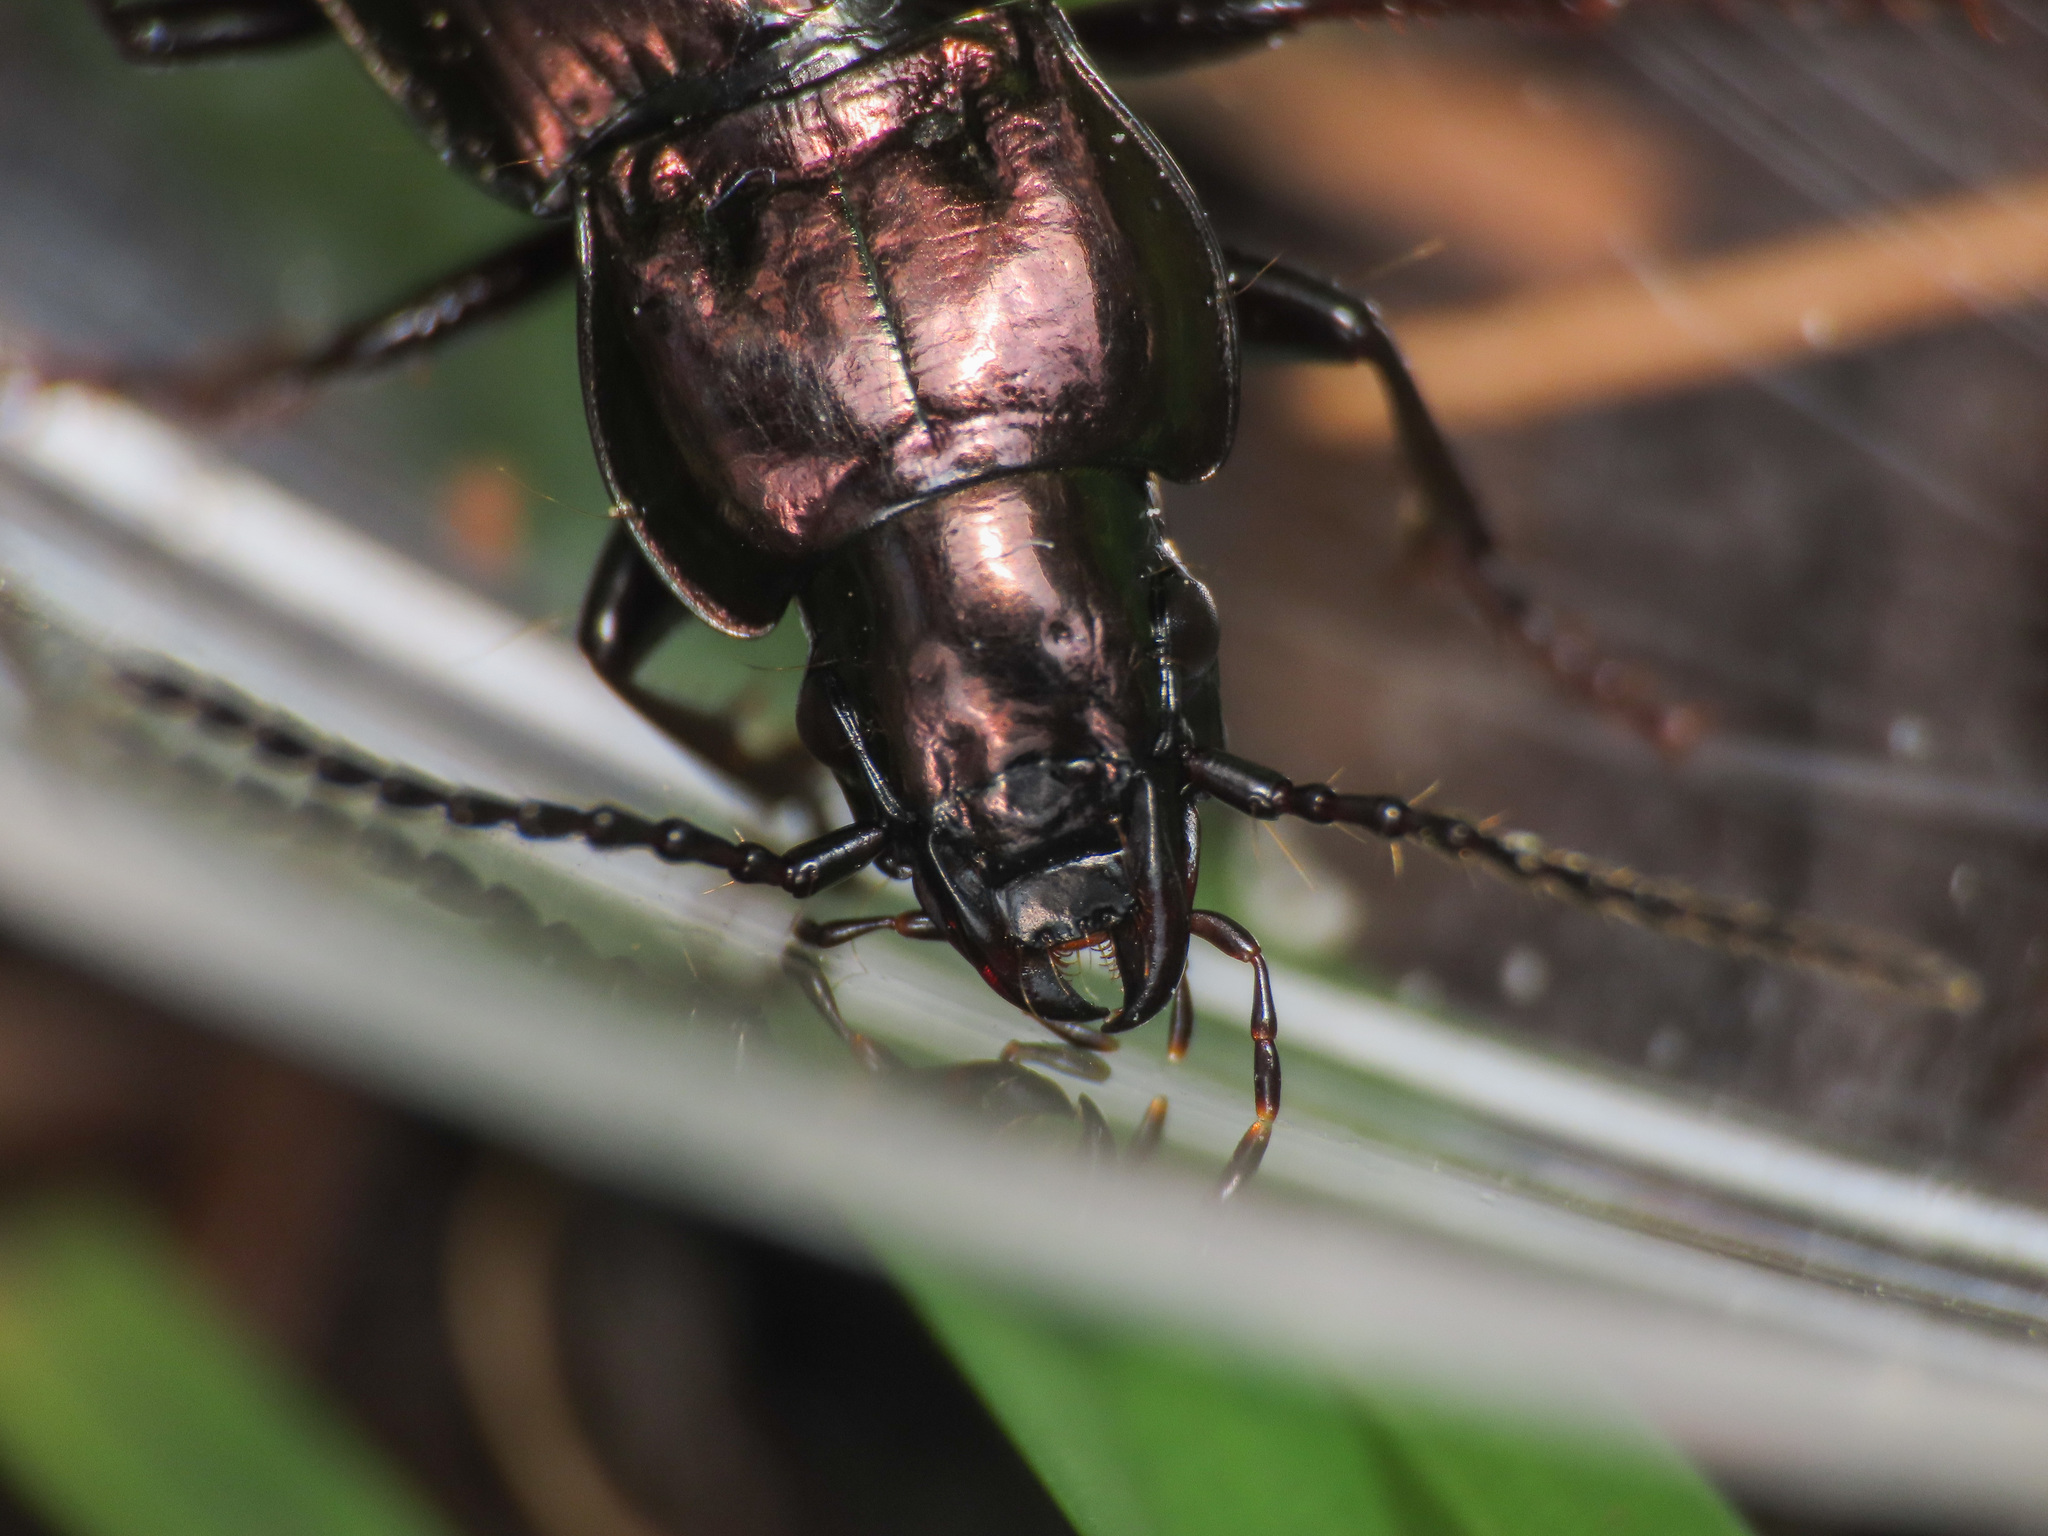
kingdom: Animalia
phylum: Arthropoda
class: Insecta
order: Coleoptera
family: Carabidae
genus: Pterostichus
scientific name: Pterostichus multipunctatus
